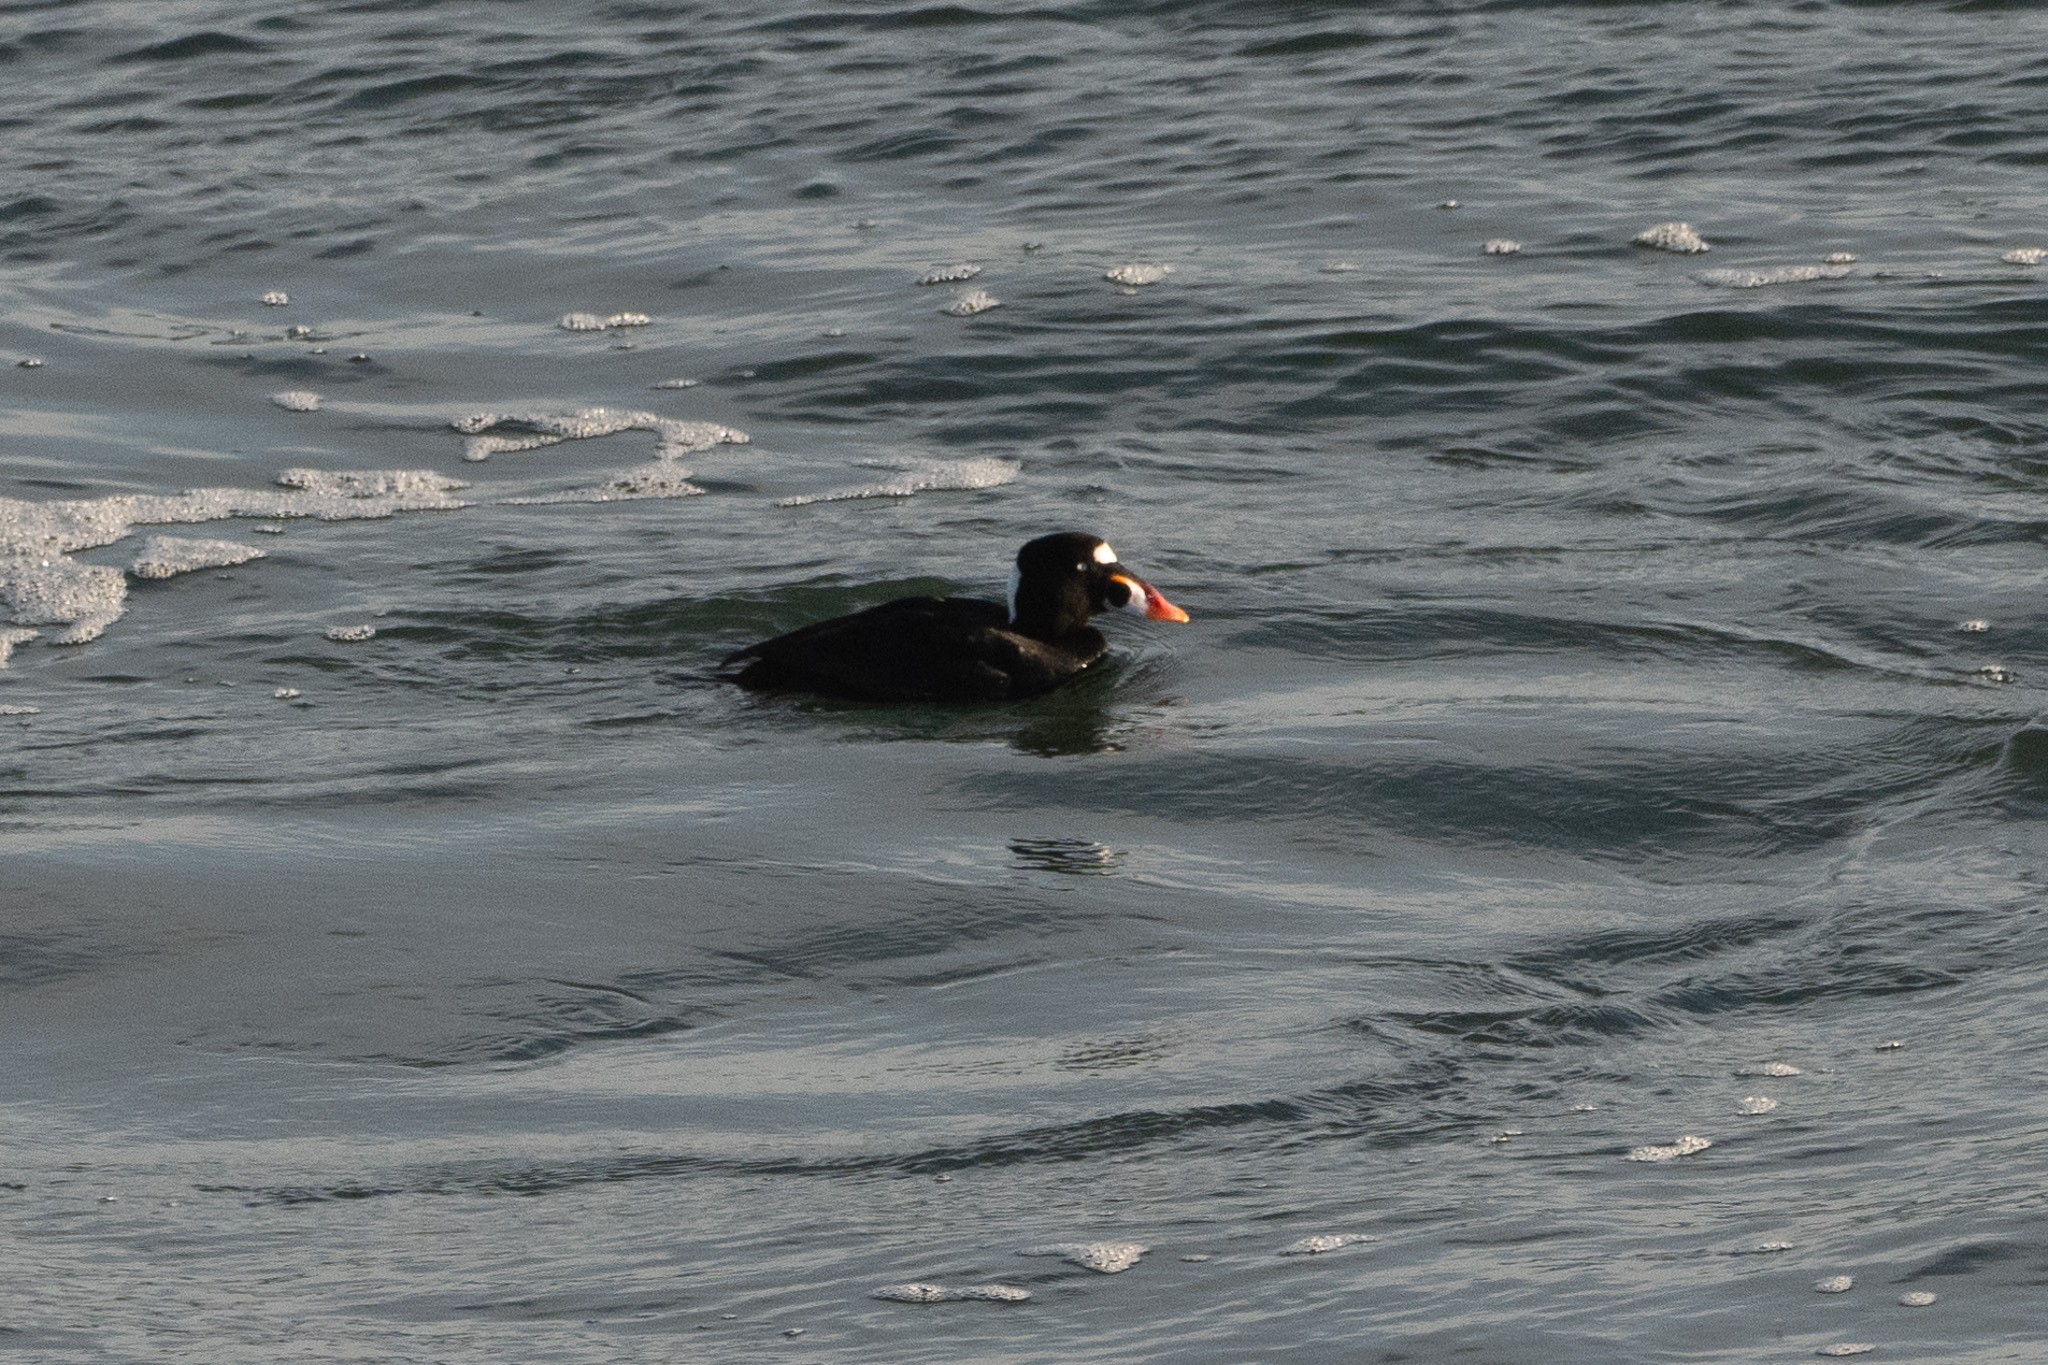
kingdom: Animalia
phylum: Chordata
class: Aves
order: Anseriformes
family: Anatidae
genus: Melanitta
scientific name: Melanitta perspicillata
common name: Surf scoter
